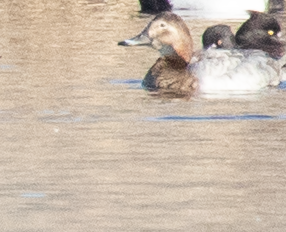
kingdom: Animalia
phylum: Chordata
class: Aves
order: Anseriformes
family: Anatidae
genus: Aythya
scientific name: Aythya ferina
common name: Common pochard
